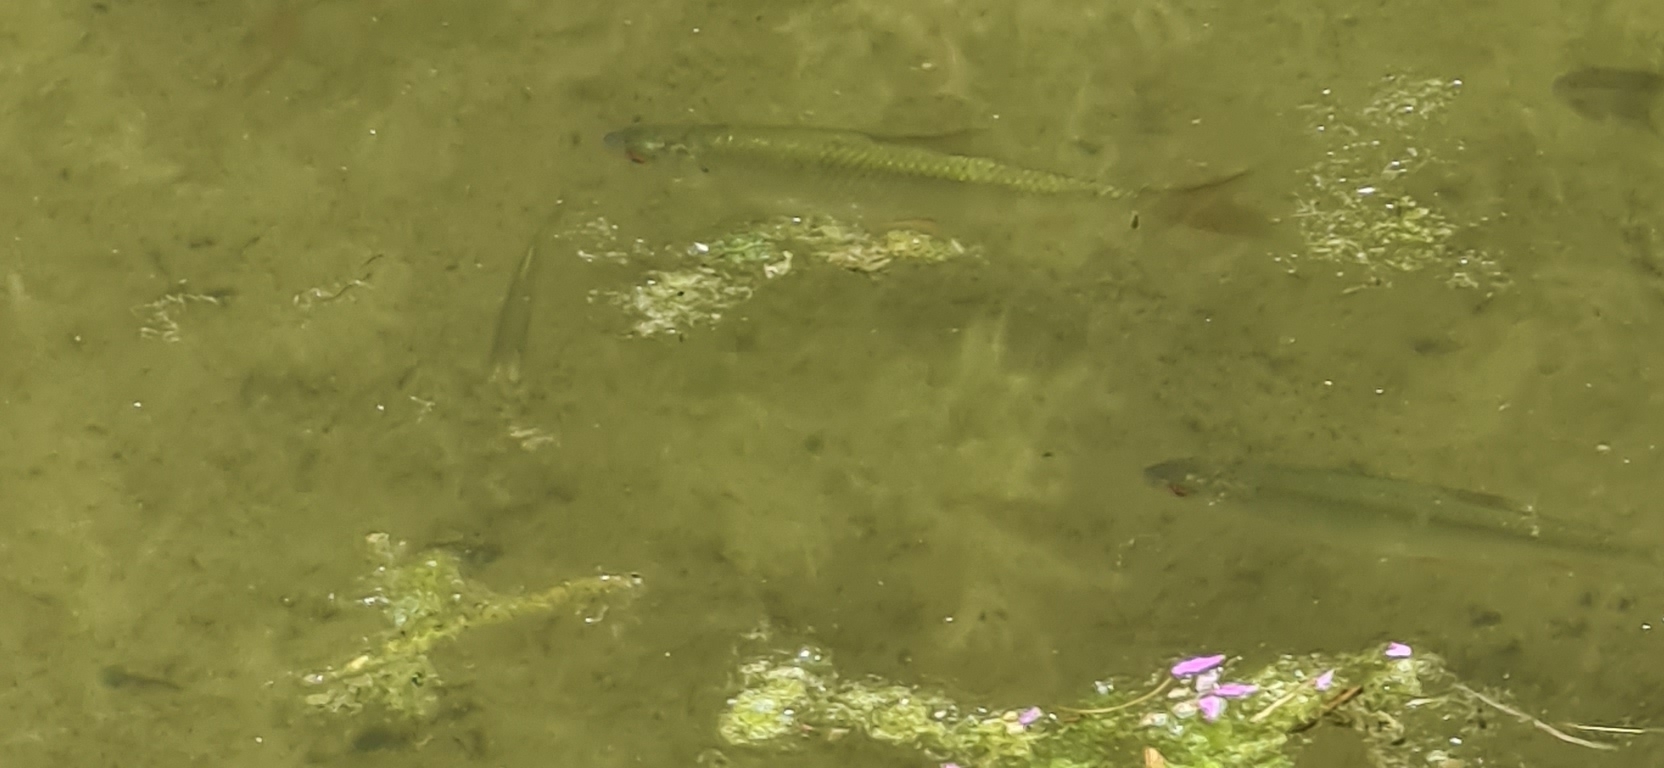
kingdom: Animalia
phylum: Chordata
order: Cypriniformes
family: Cyprinidae
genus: Rutilus
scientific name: Rutilus rutilus
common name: Roach
